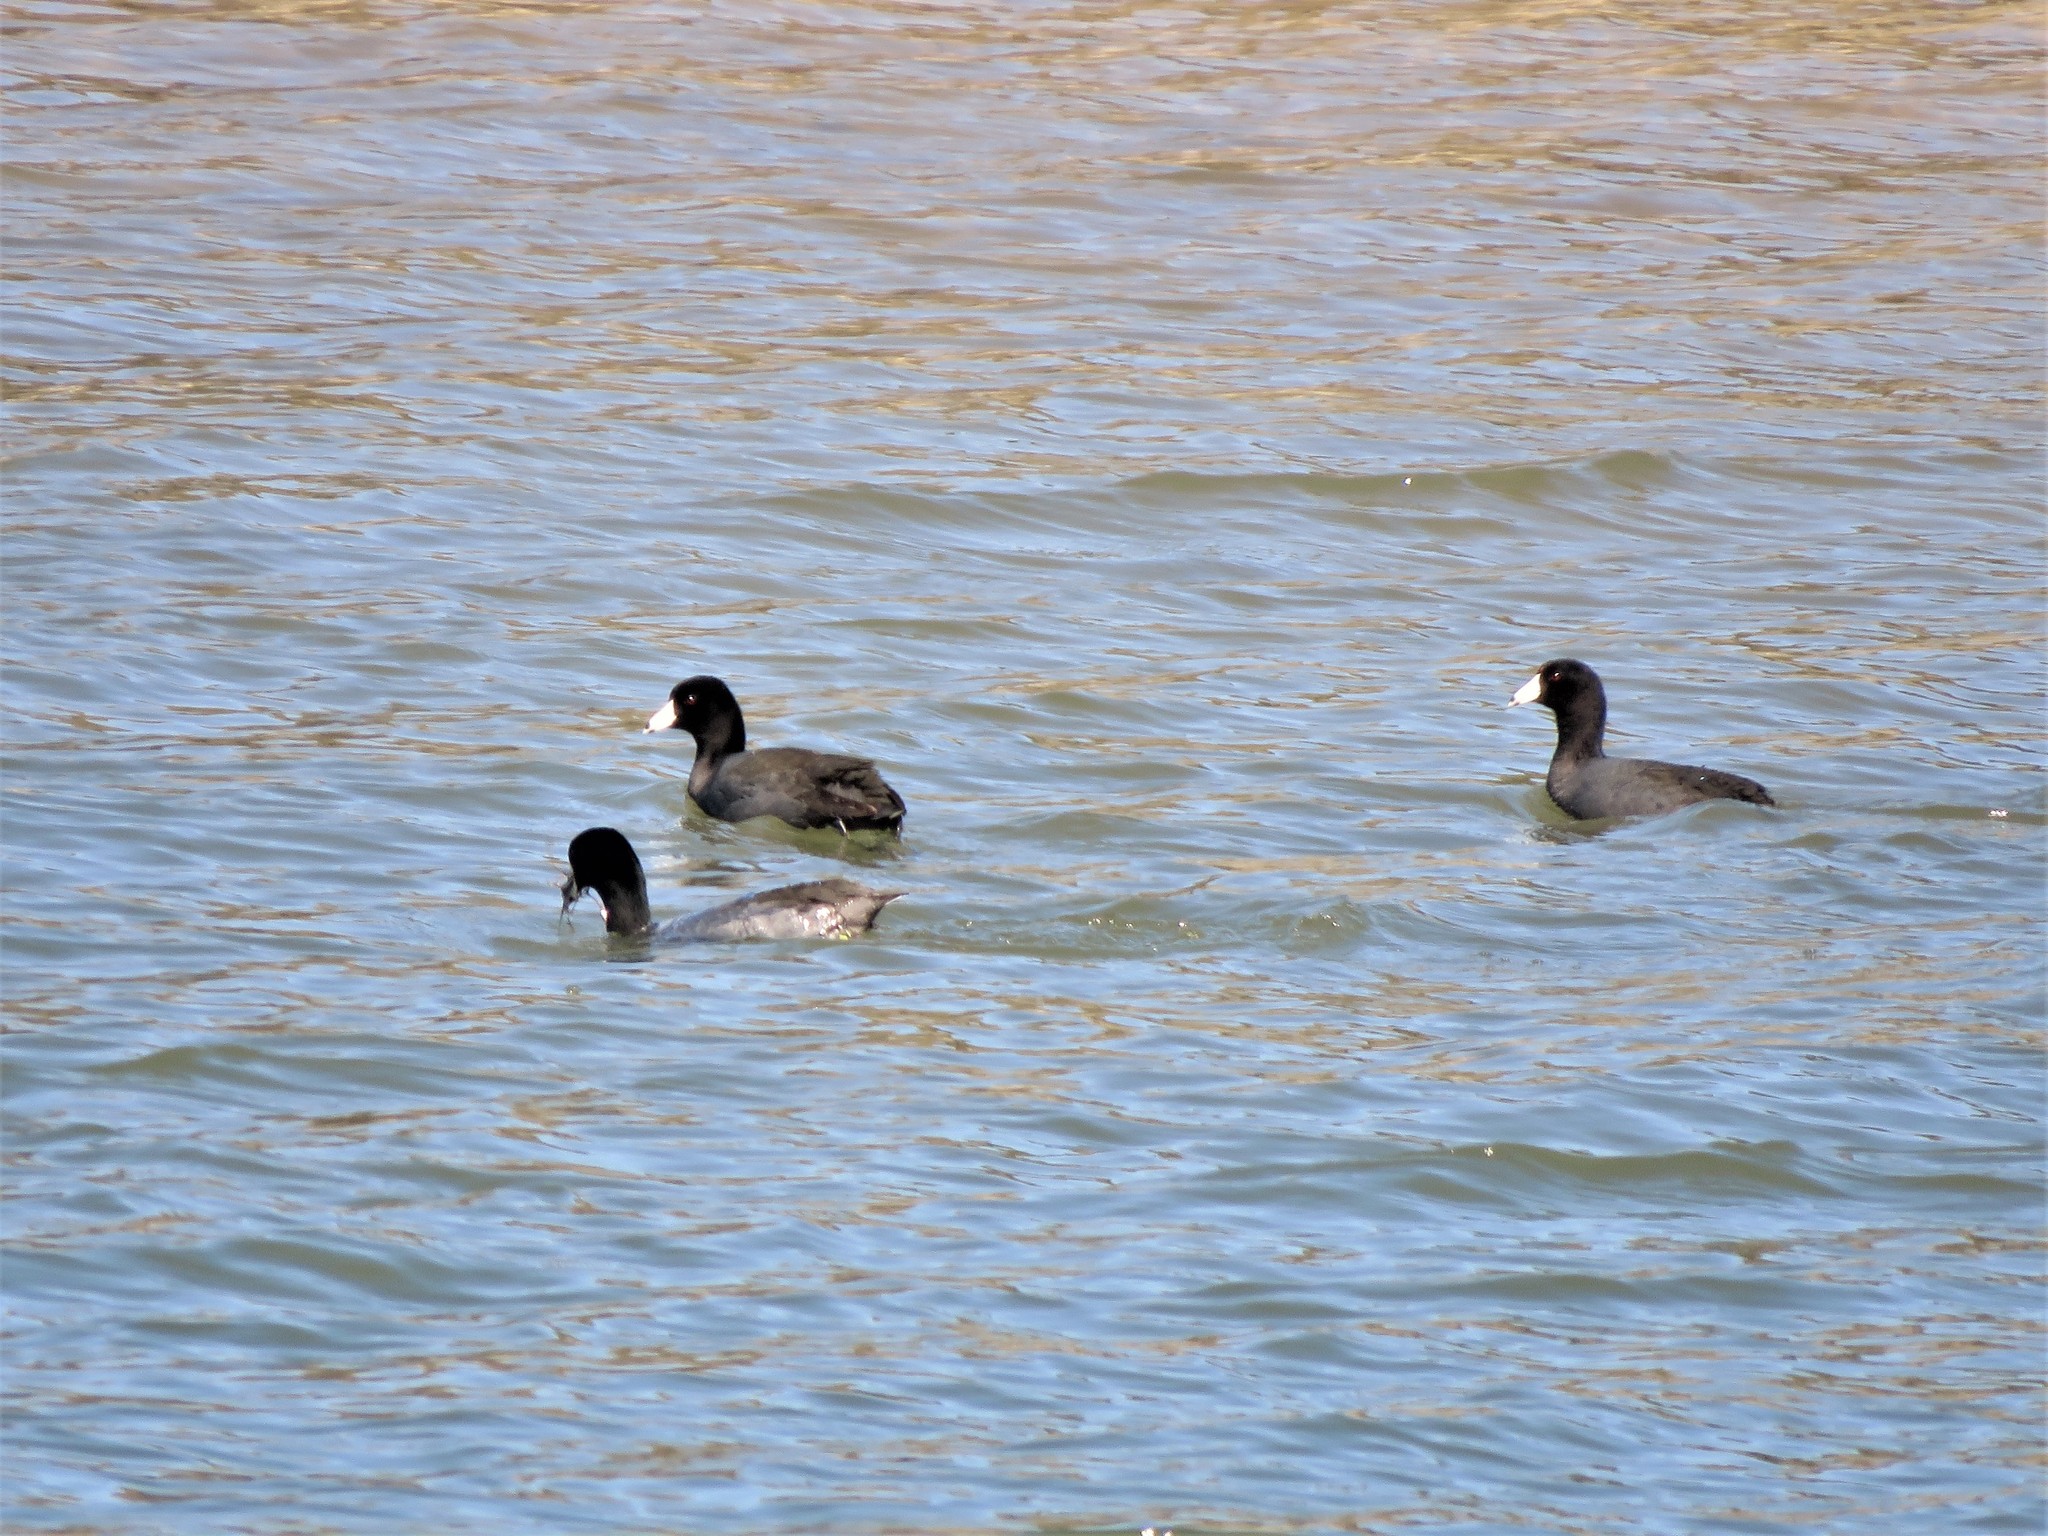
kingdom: Animalia
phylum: Chordata
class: Aves
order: Gruiformes
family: Rallidae
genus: Fulica
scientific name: Fulica americana
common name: American coot
